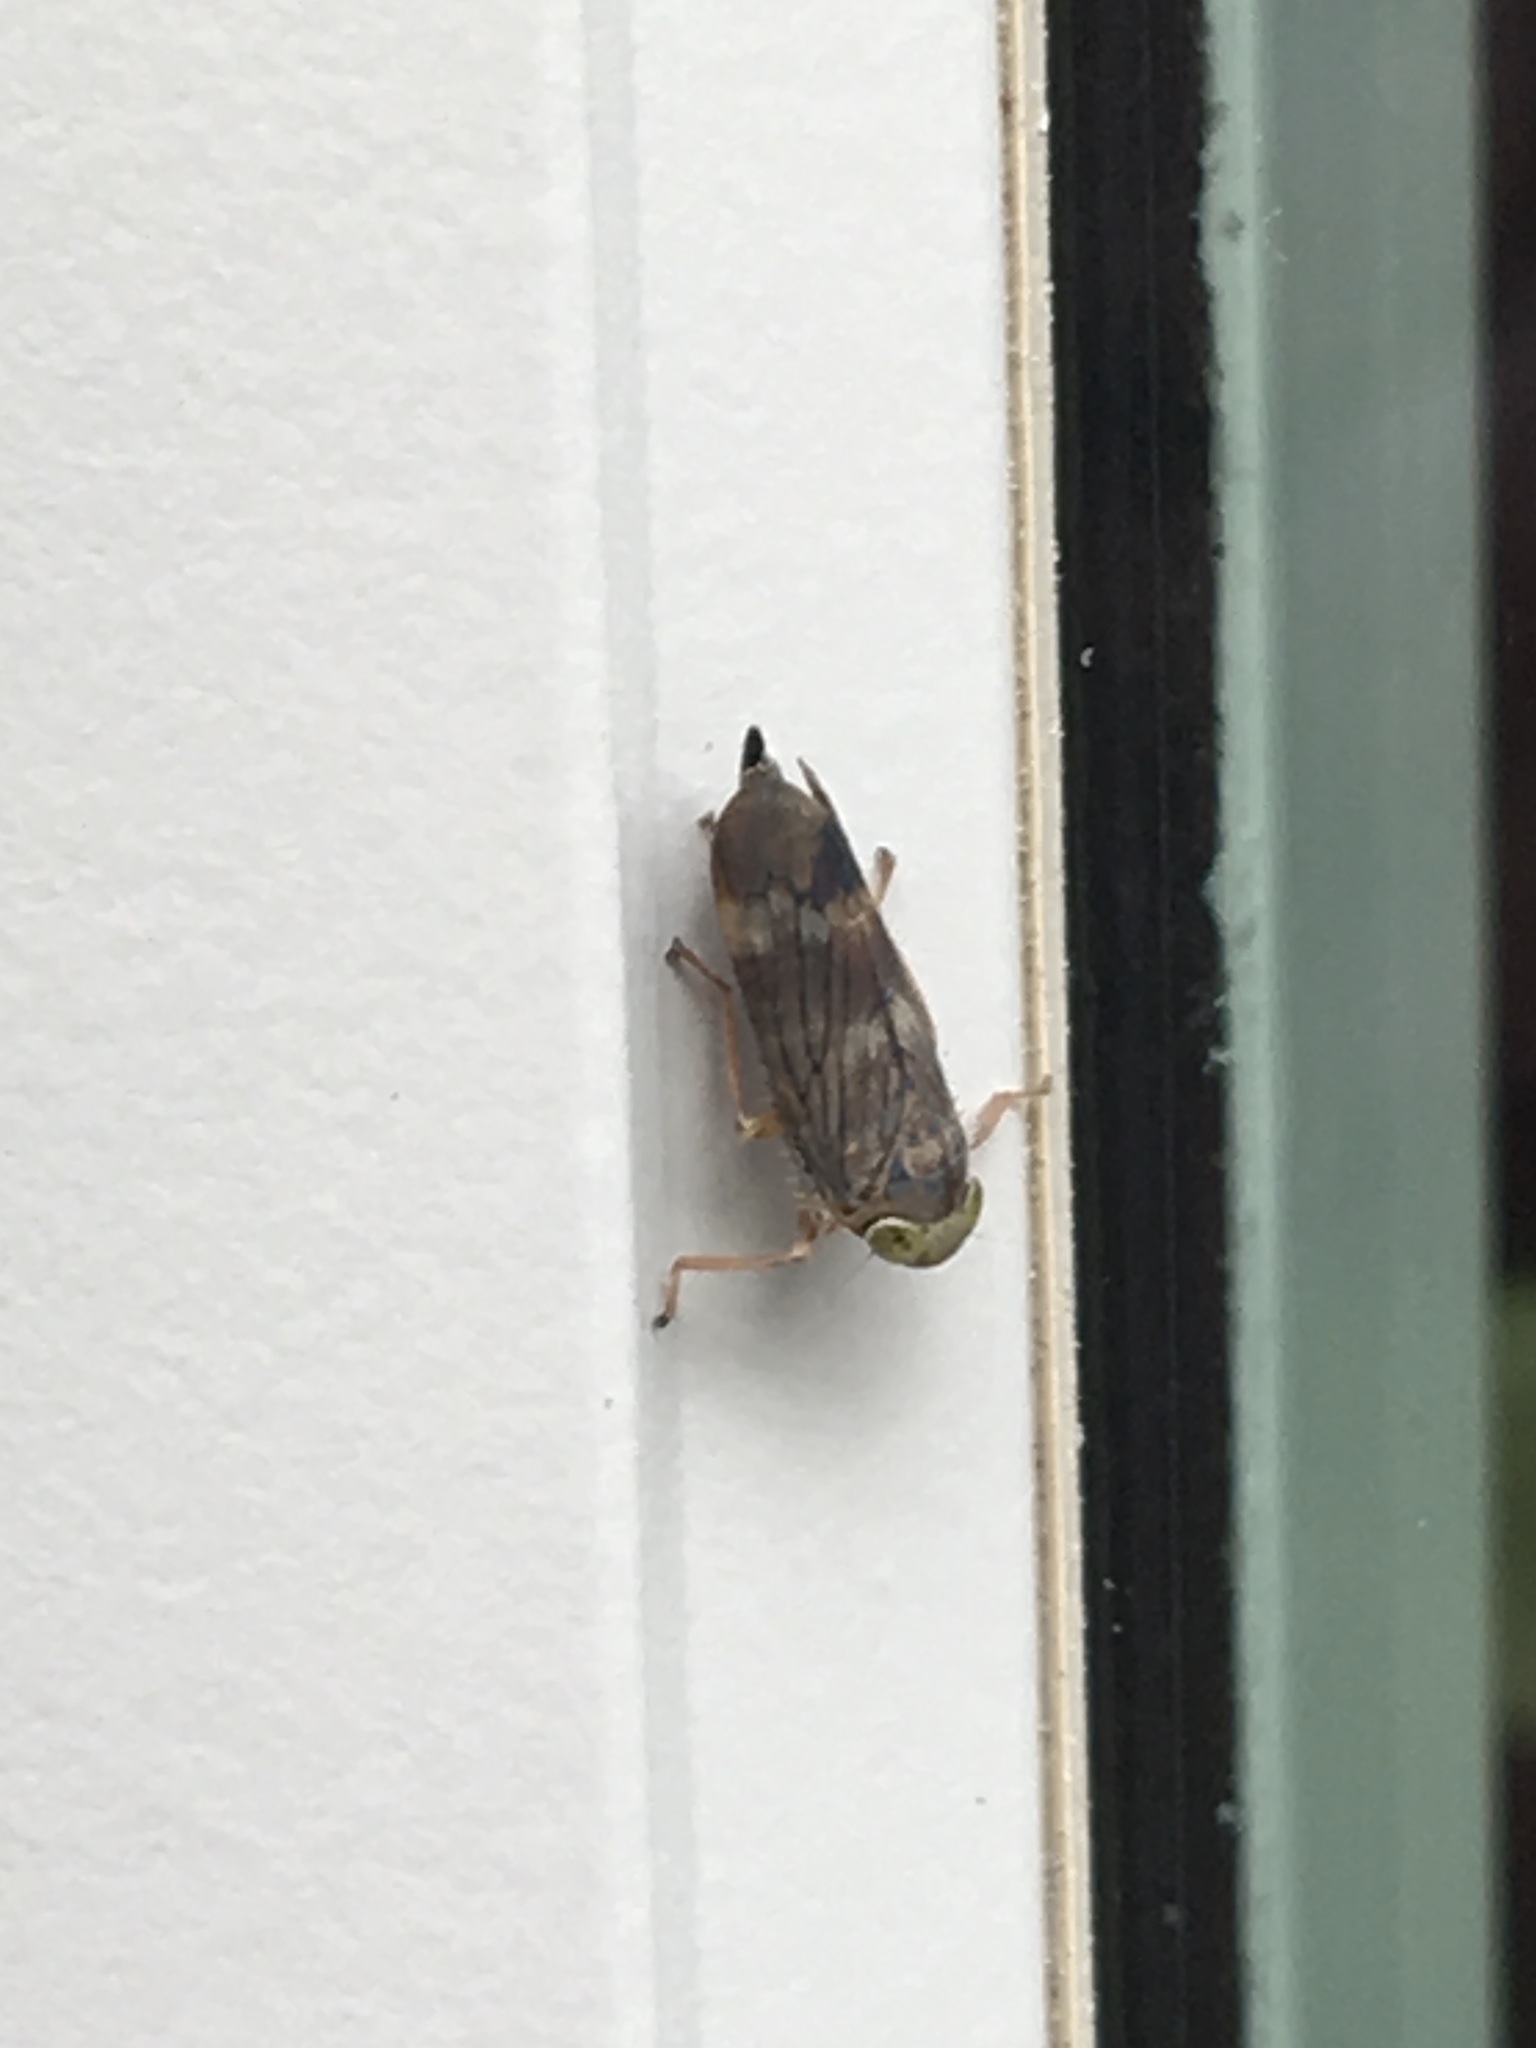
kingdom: Animalia
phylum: Arthropoda
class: Insecta
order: Hemiptera
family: Cicadellidae
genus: Jikradia
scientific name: Jikradia olitoria
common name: Coppery leafhopper
